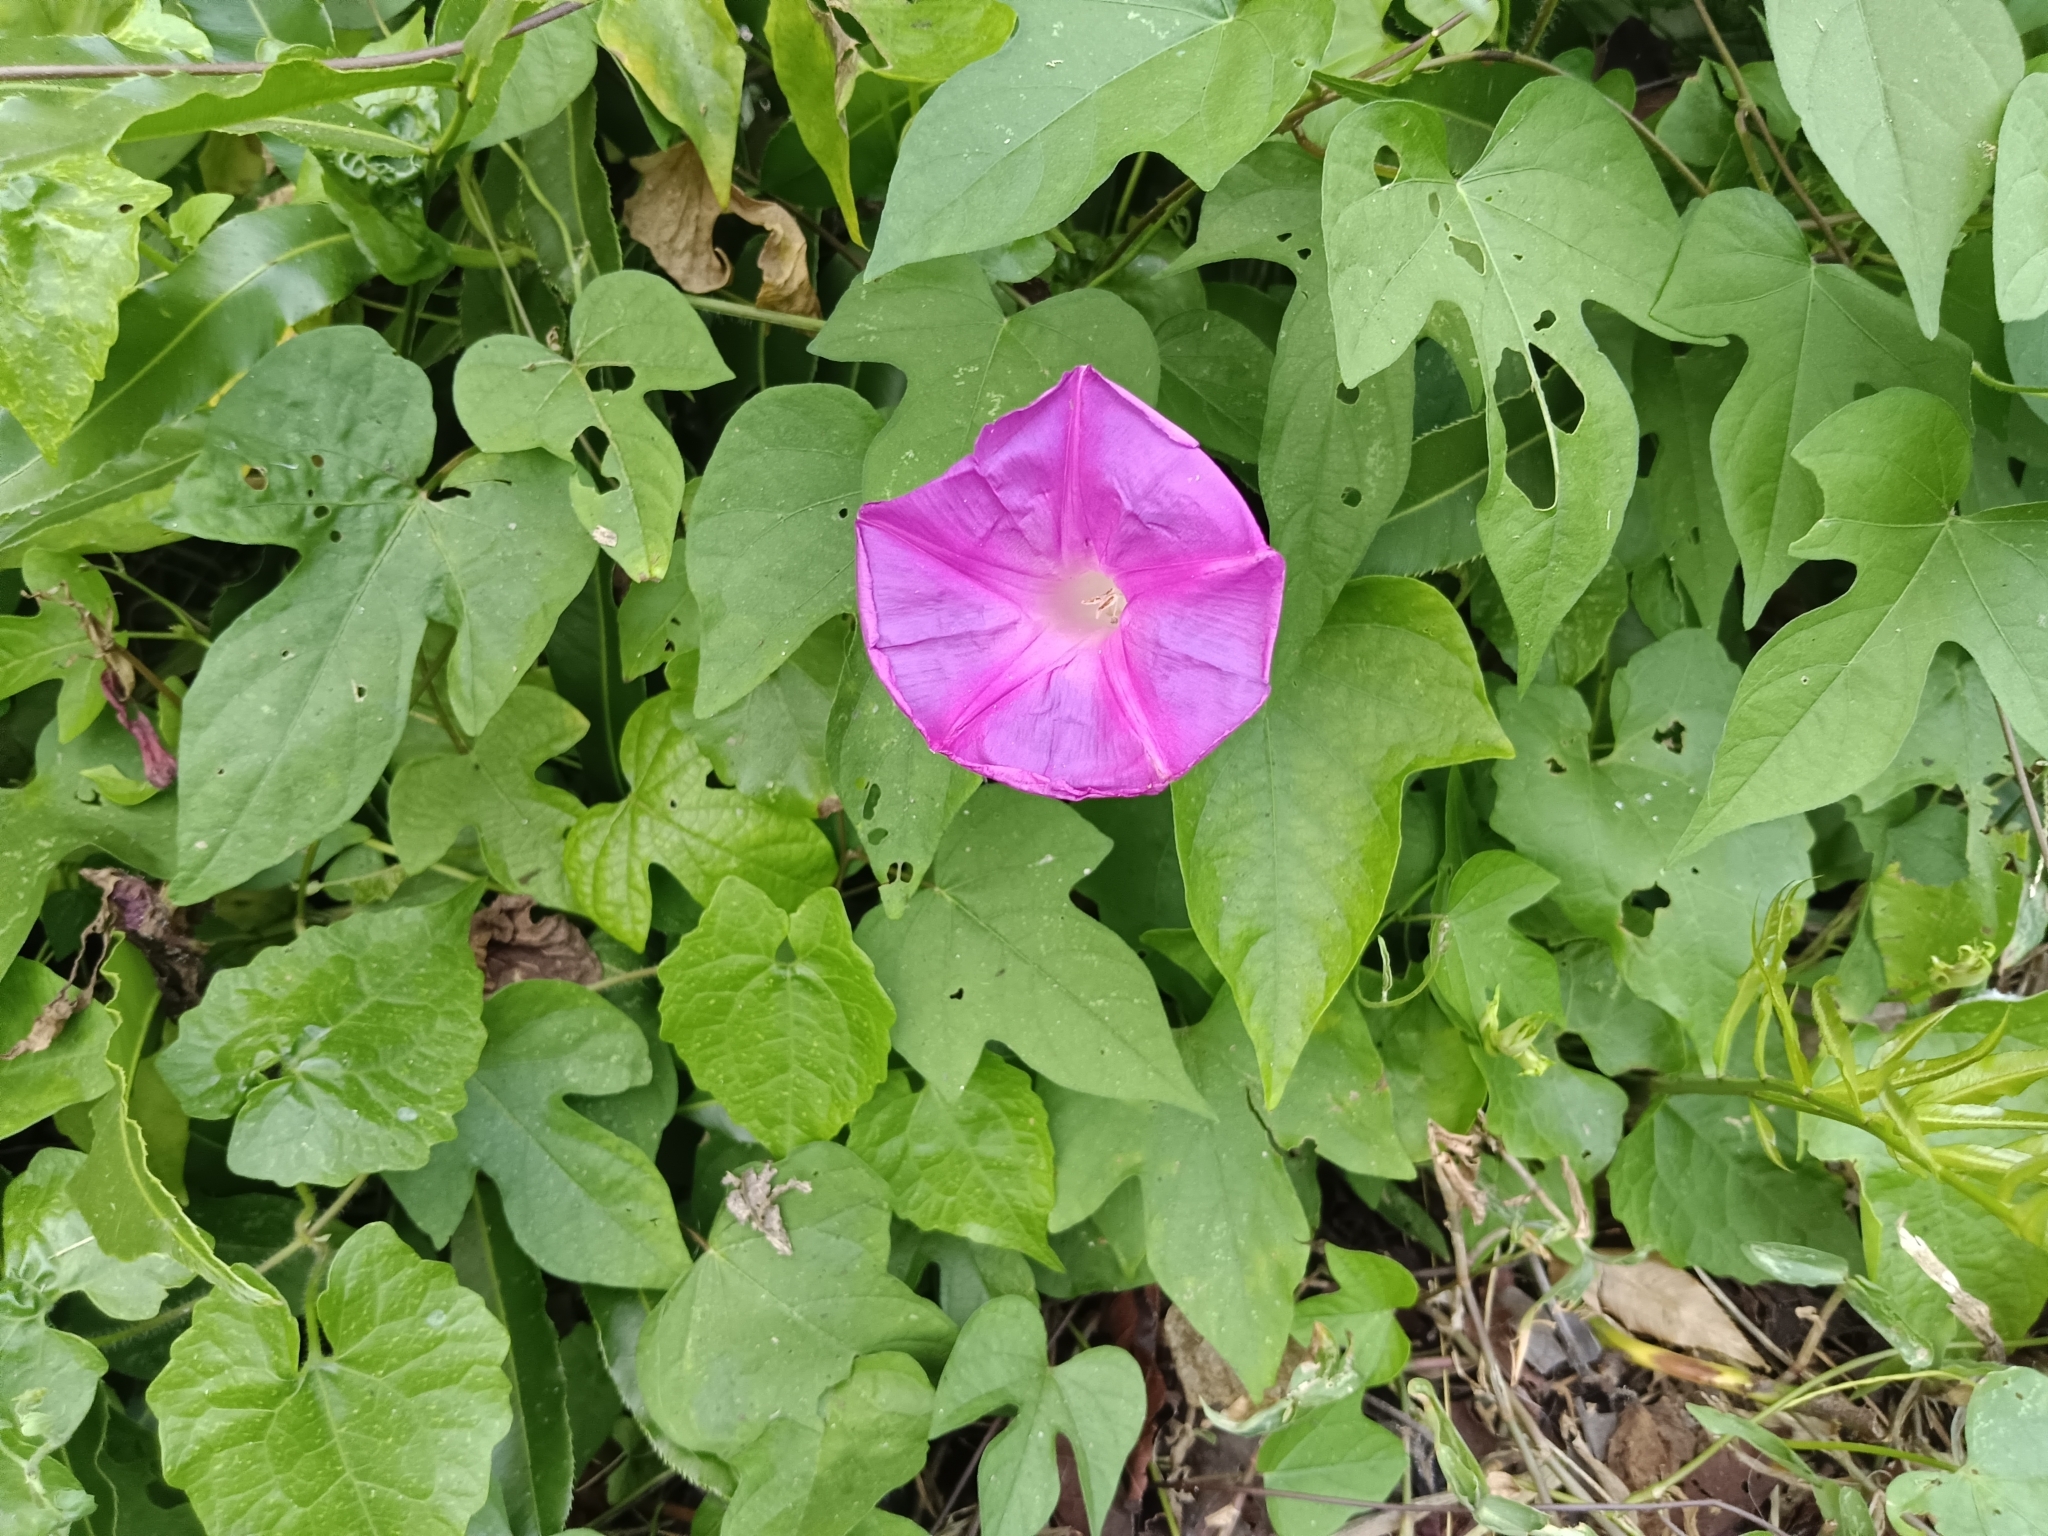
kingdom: Plantae
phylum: Tracheophyta
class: Magnoliopsida
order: Solanales
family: Convolvulaceae
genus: Ipomoea
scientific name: Ipomoea indica
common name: Blue dawnflower
